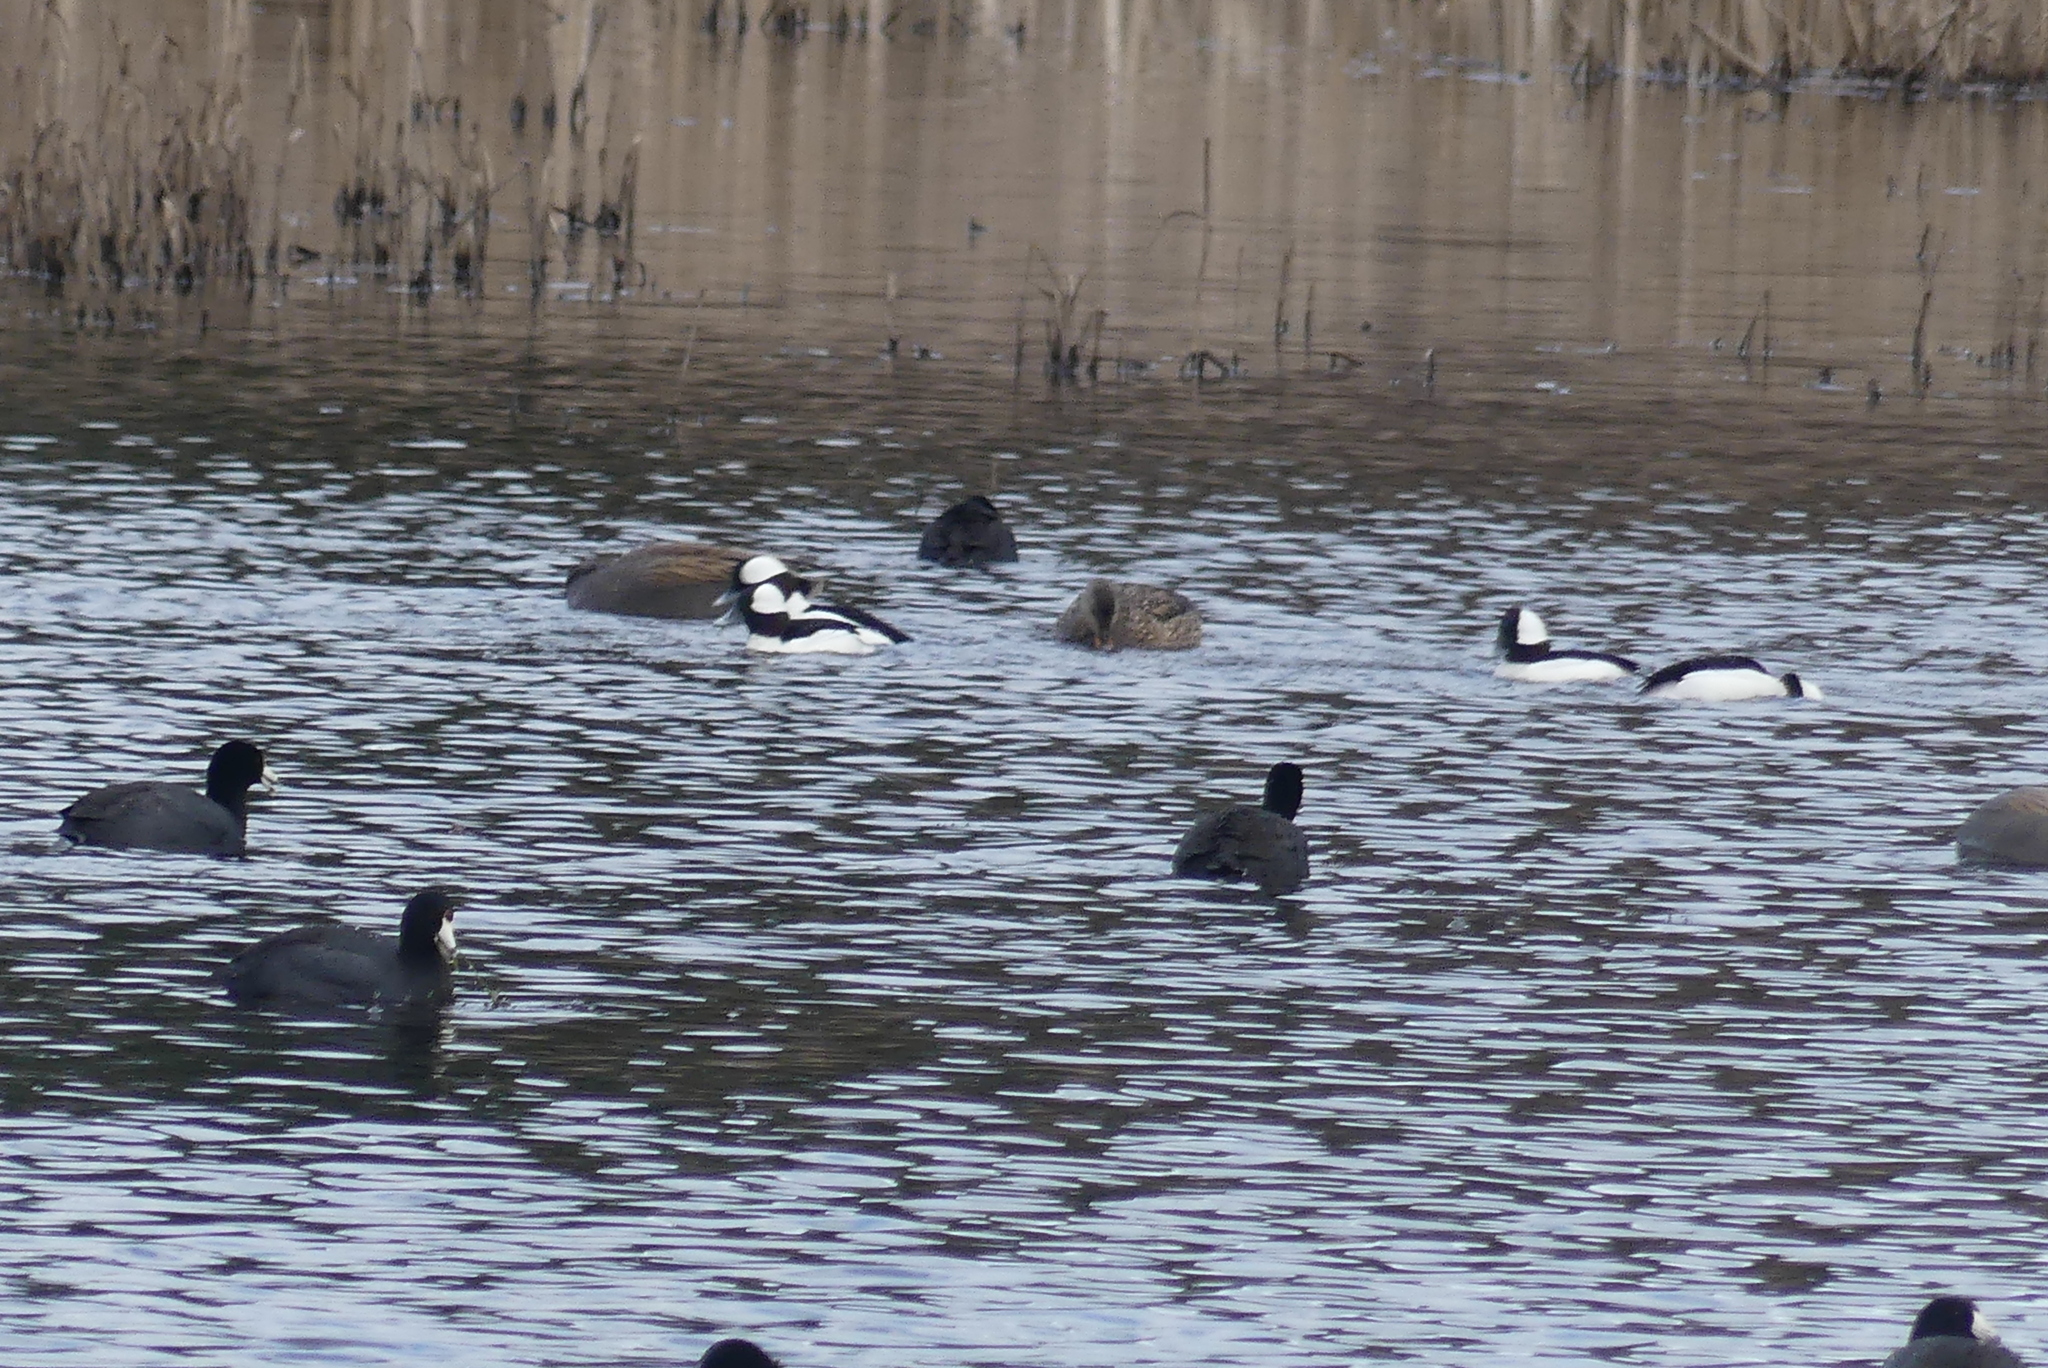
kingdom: Animalia
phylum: Chordata
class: Aves
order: Anseriformes
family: Anatidae
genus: Bucephala
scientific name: Bucephala albeola
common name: Bufflehead
